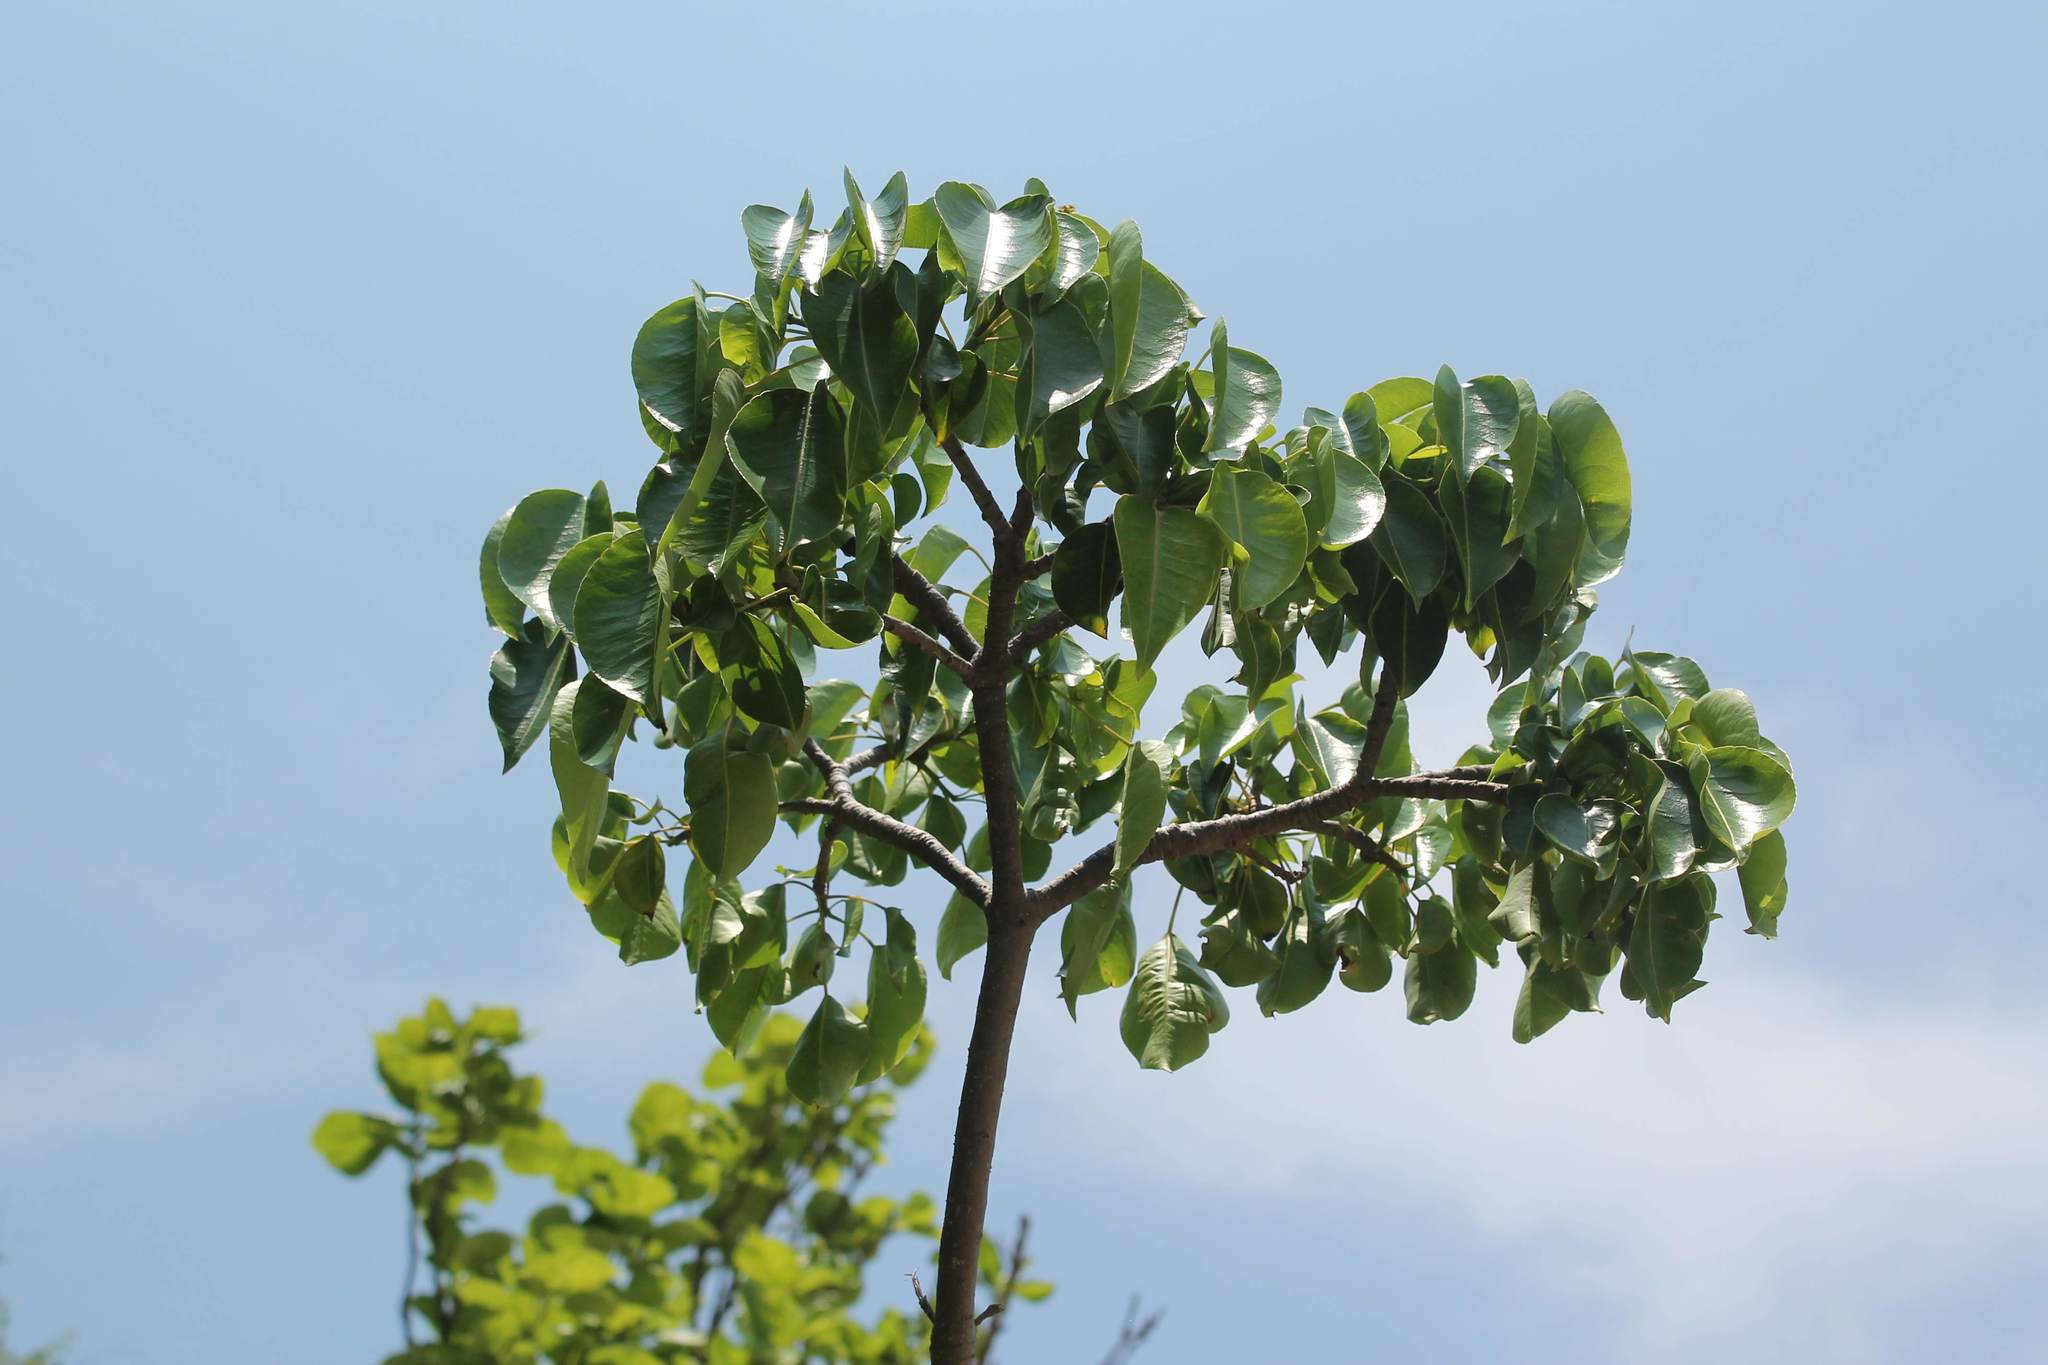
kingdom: Plantae
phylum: Tracheophyta
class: Magnoliopsida
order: Malpighiales
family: Euphorbiaceae
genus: Hippomane
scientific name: Hippomane mancinella
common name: Manchineel
